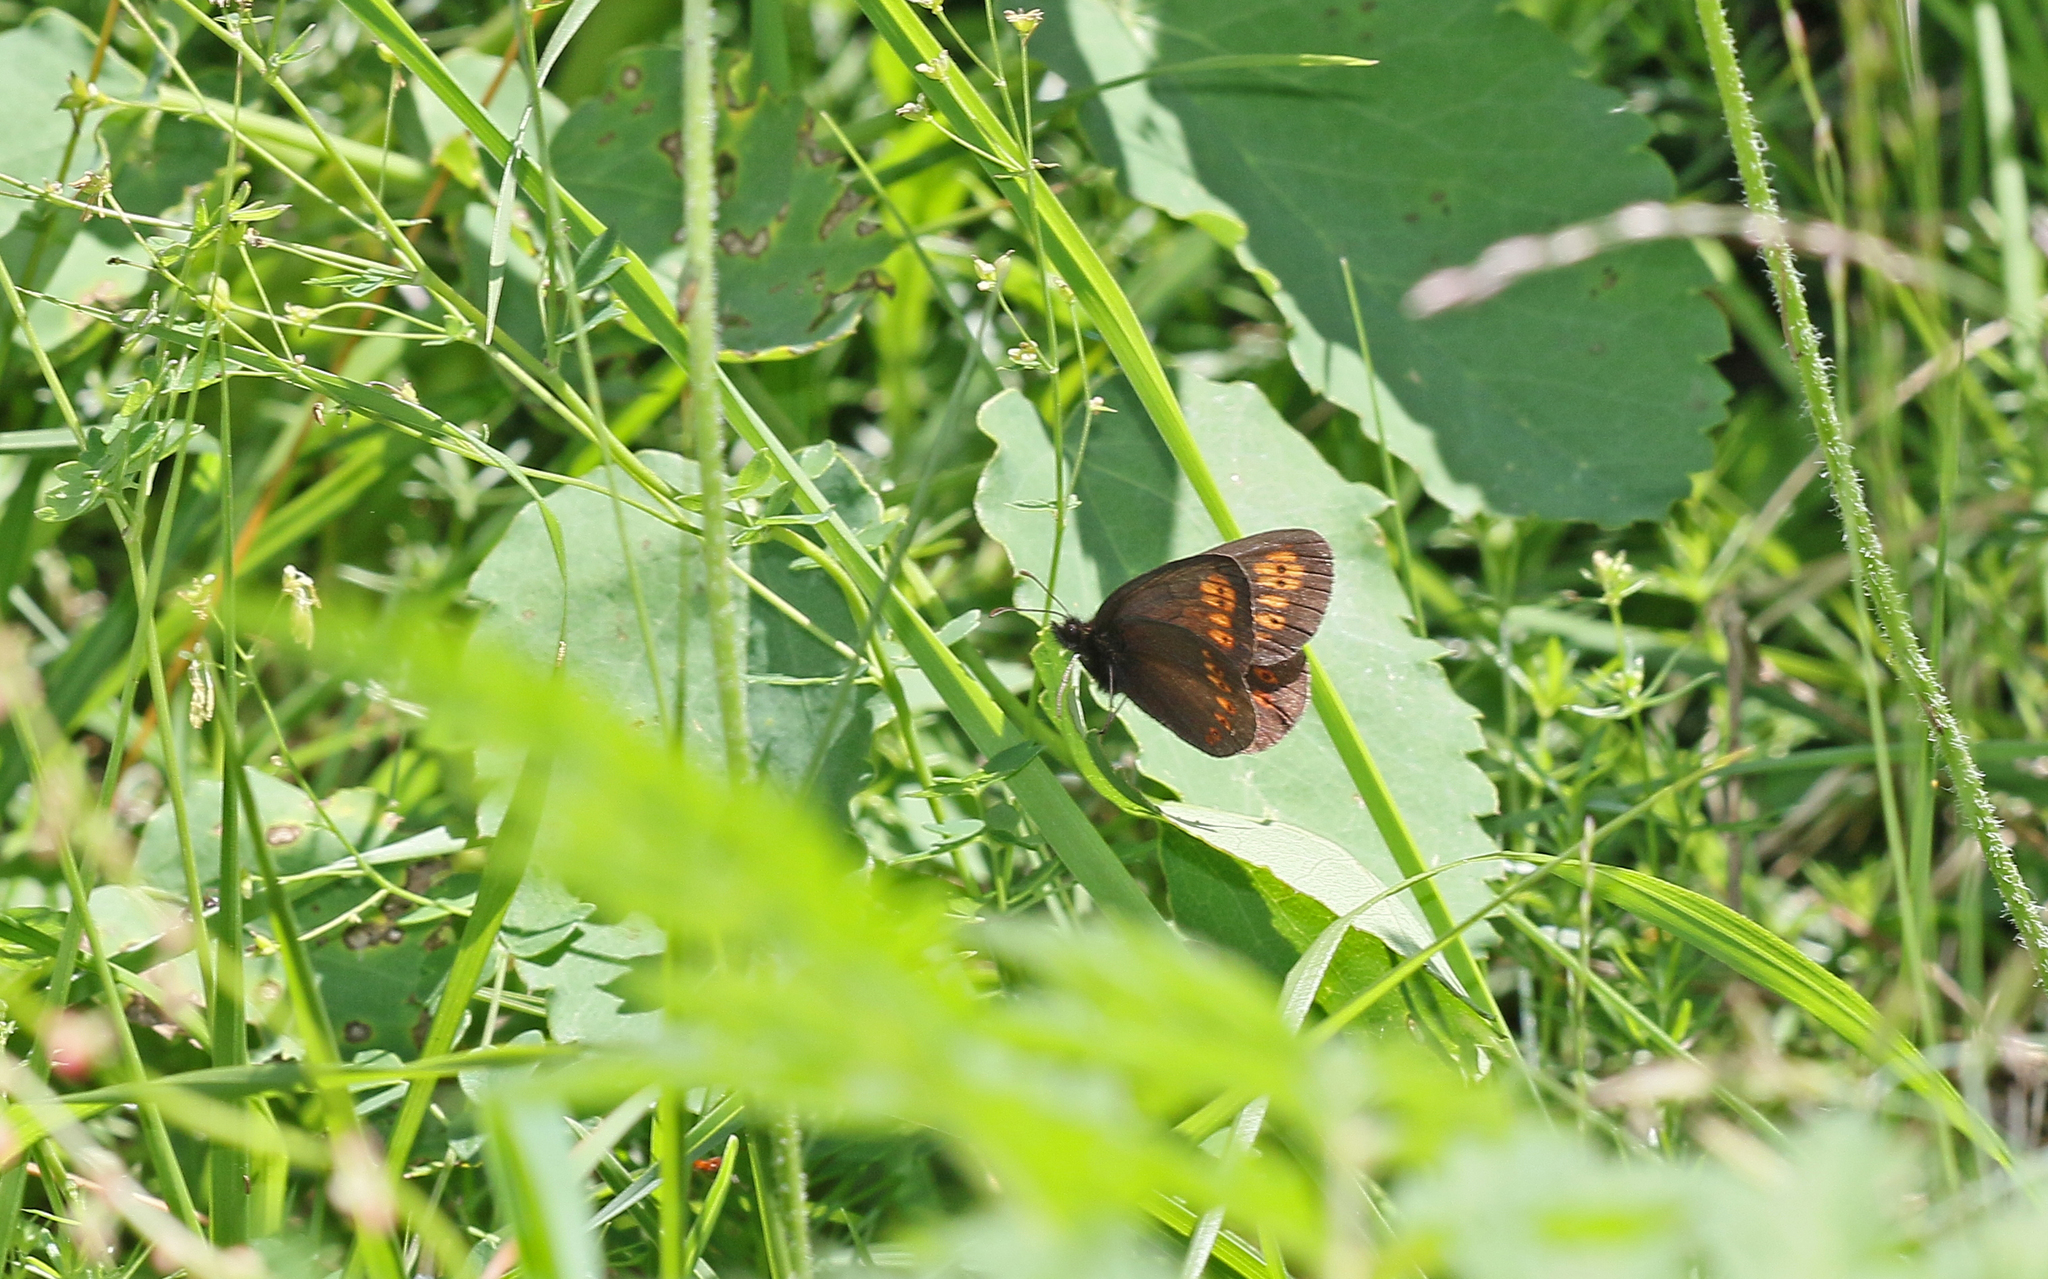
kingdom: Animalia
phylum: Arthropoda
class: Insecta
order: Lepidoptera
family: Nymphalidae
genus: Erebia
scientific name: Erebia alberganus
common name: Almond-eyed ringlet
